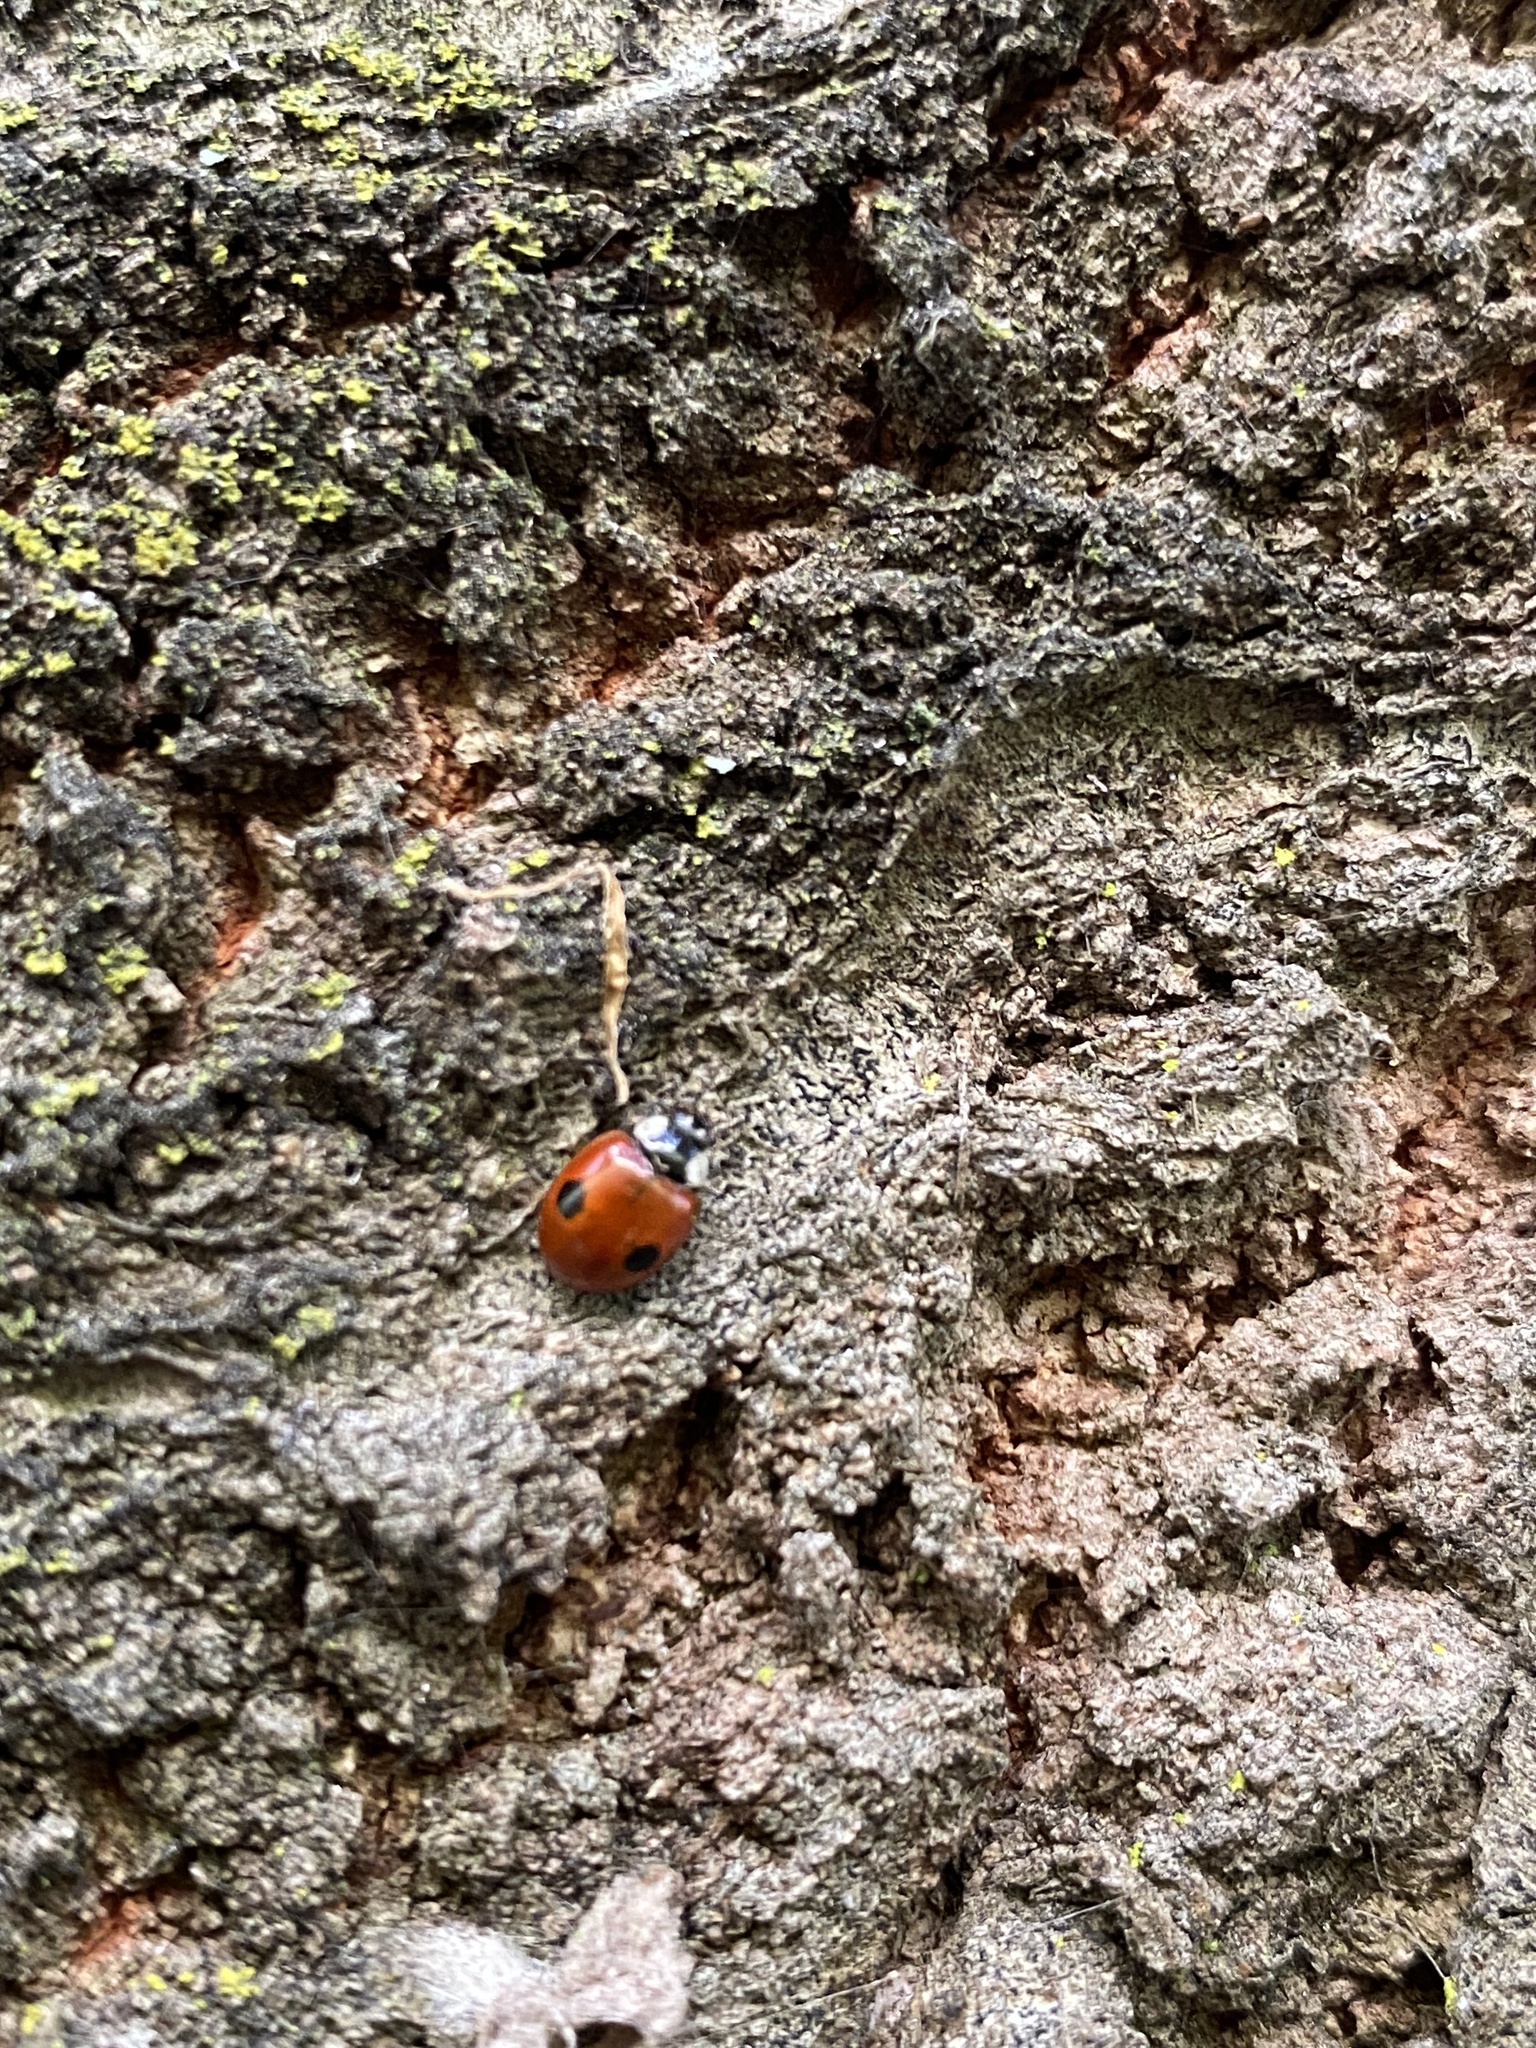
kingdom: Animalia
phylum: Arthropoda
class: Insecta
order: Coleoptera
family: Coccinellidae
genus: Adalia
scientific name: Adalia bipunctata
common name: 2-spot ladybird
